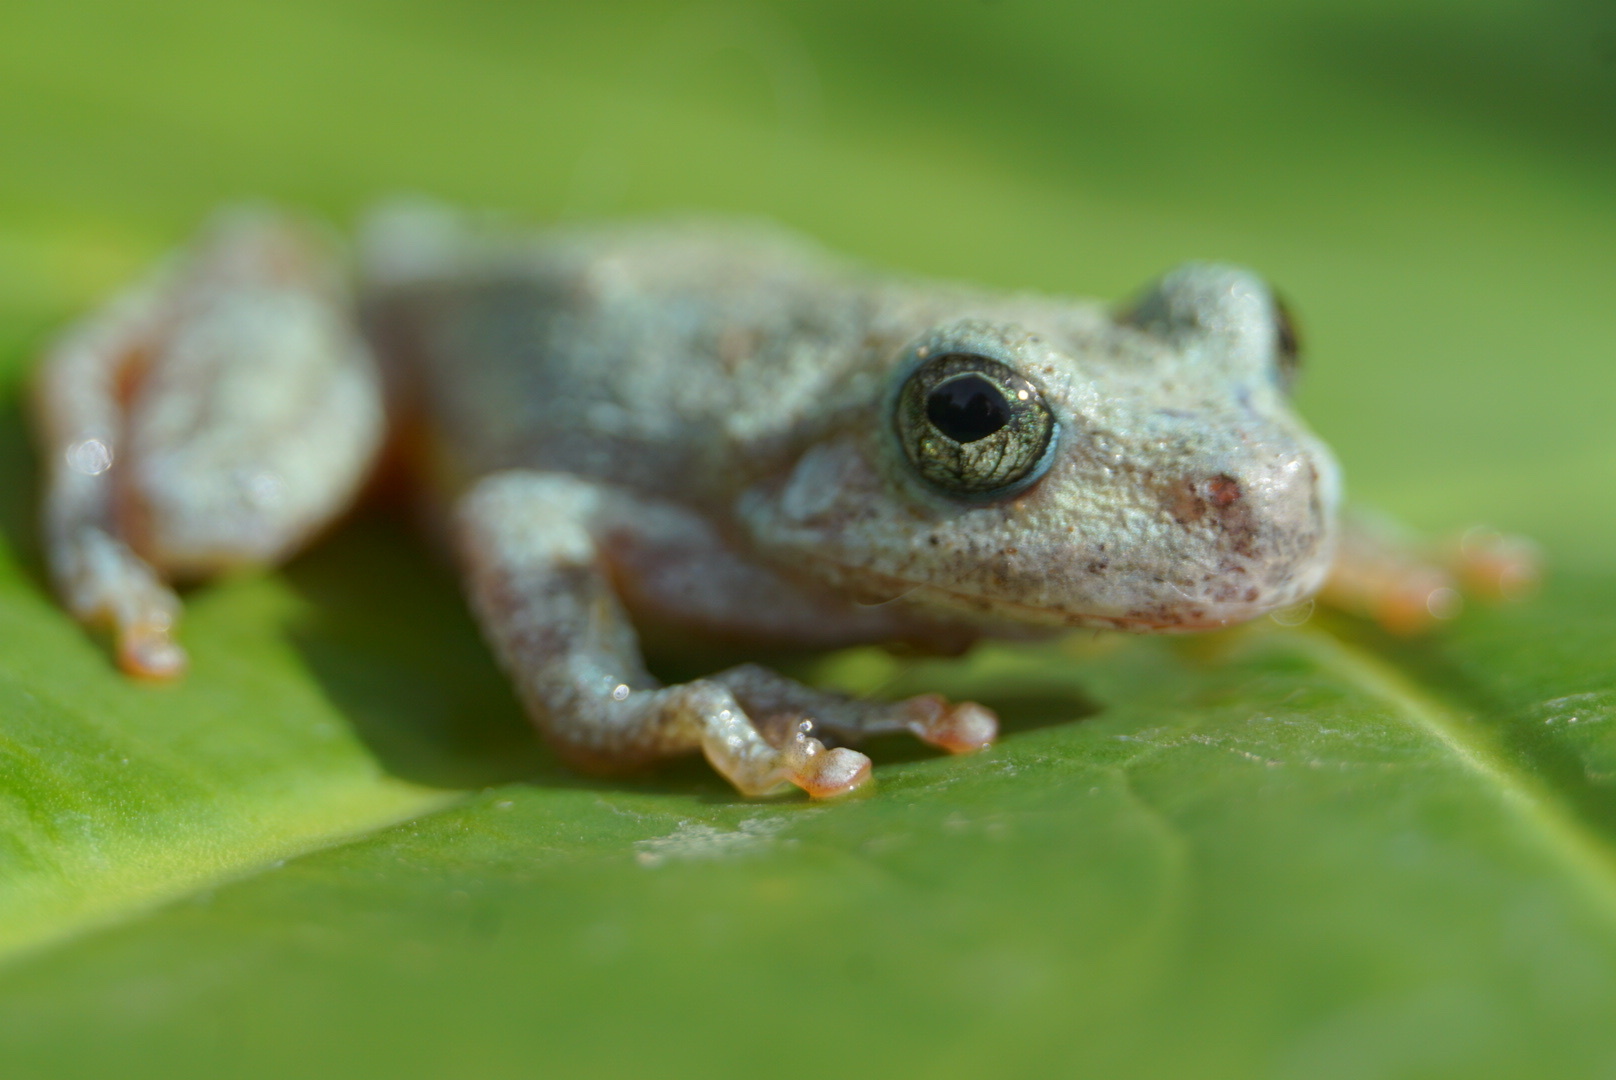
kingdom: Animalia
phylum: Chordata
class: Amphibia
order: Anura
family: Hylidae
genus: Dryophytes
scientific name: Dryophytes arenicolor
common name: Canyon treefrog
